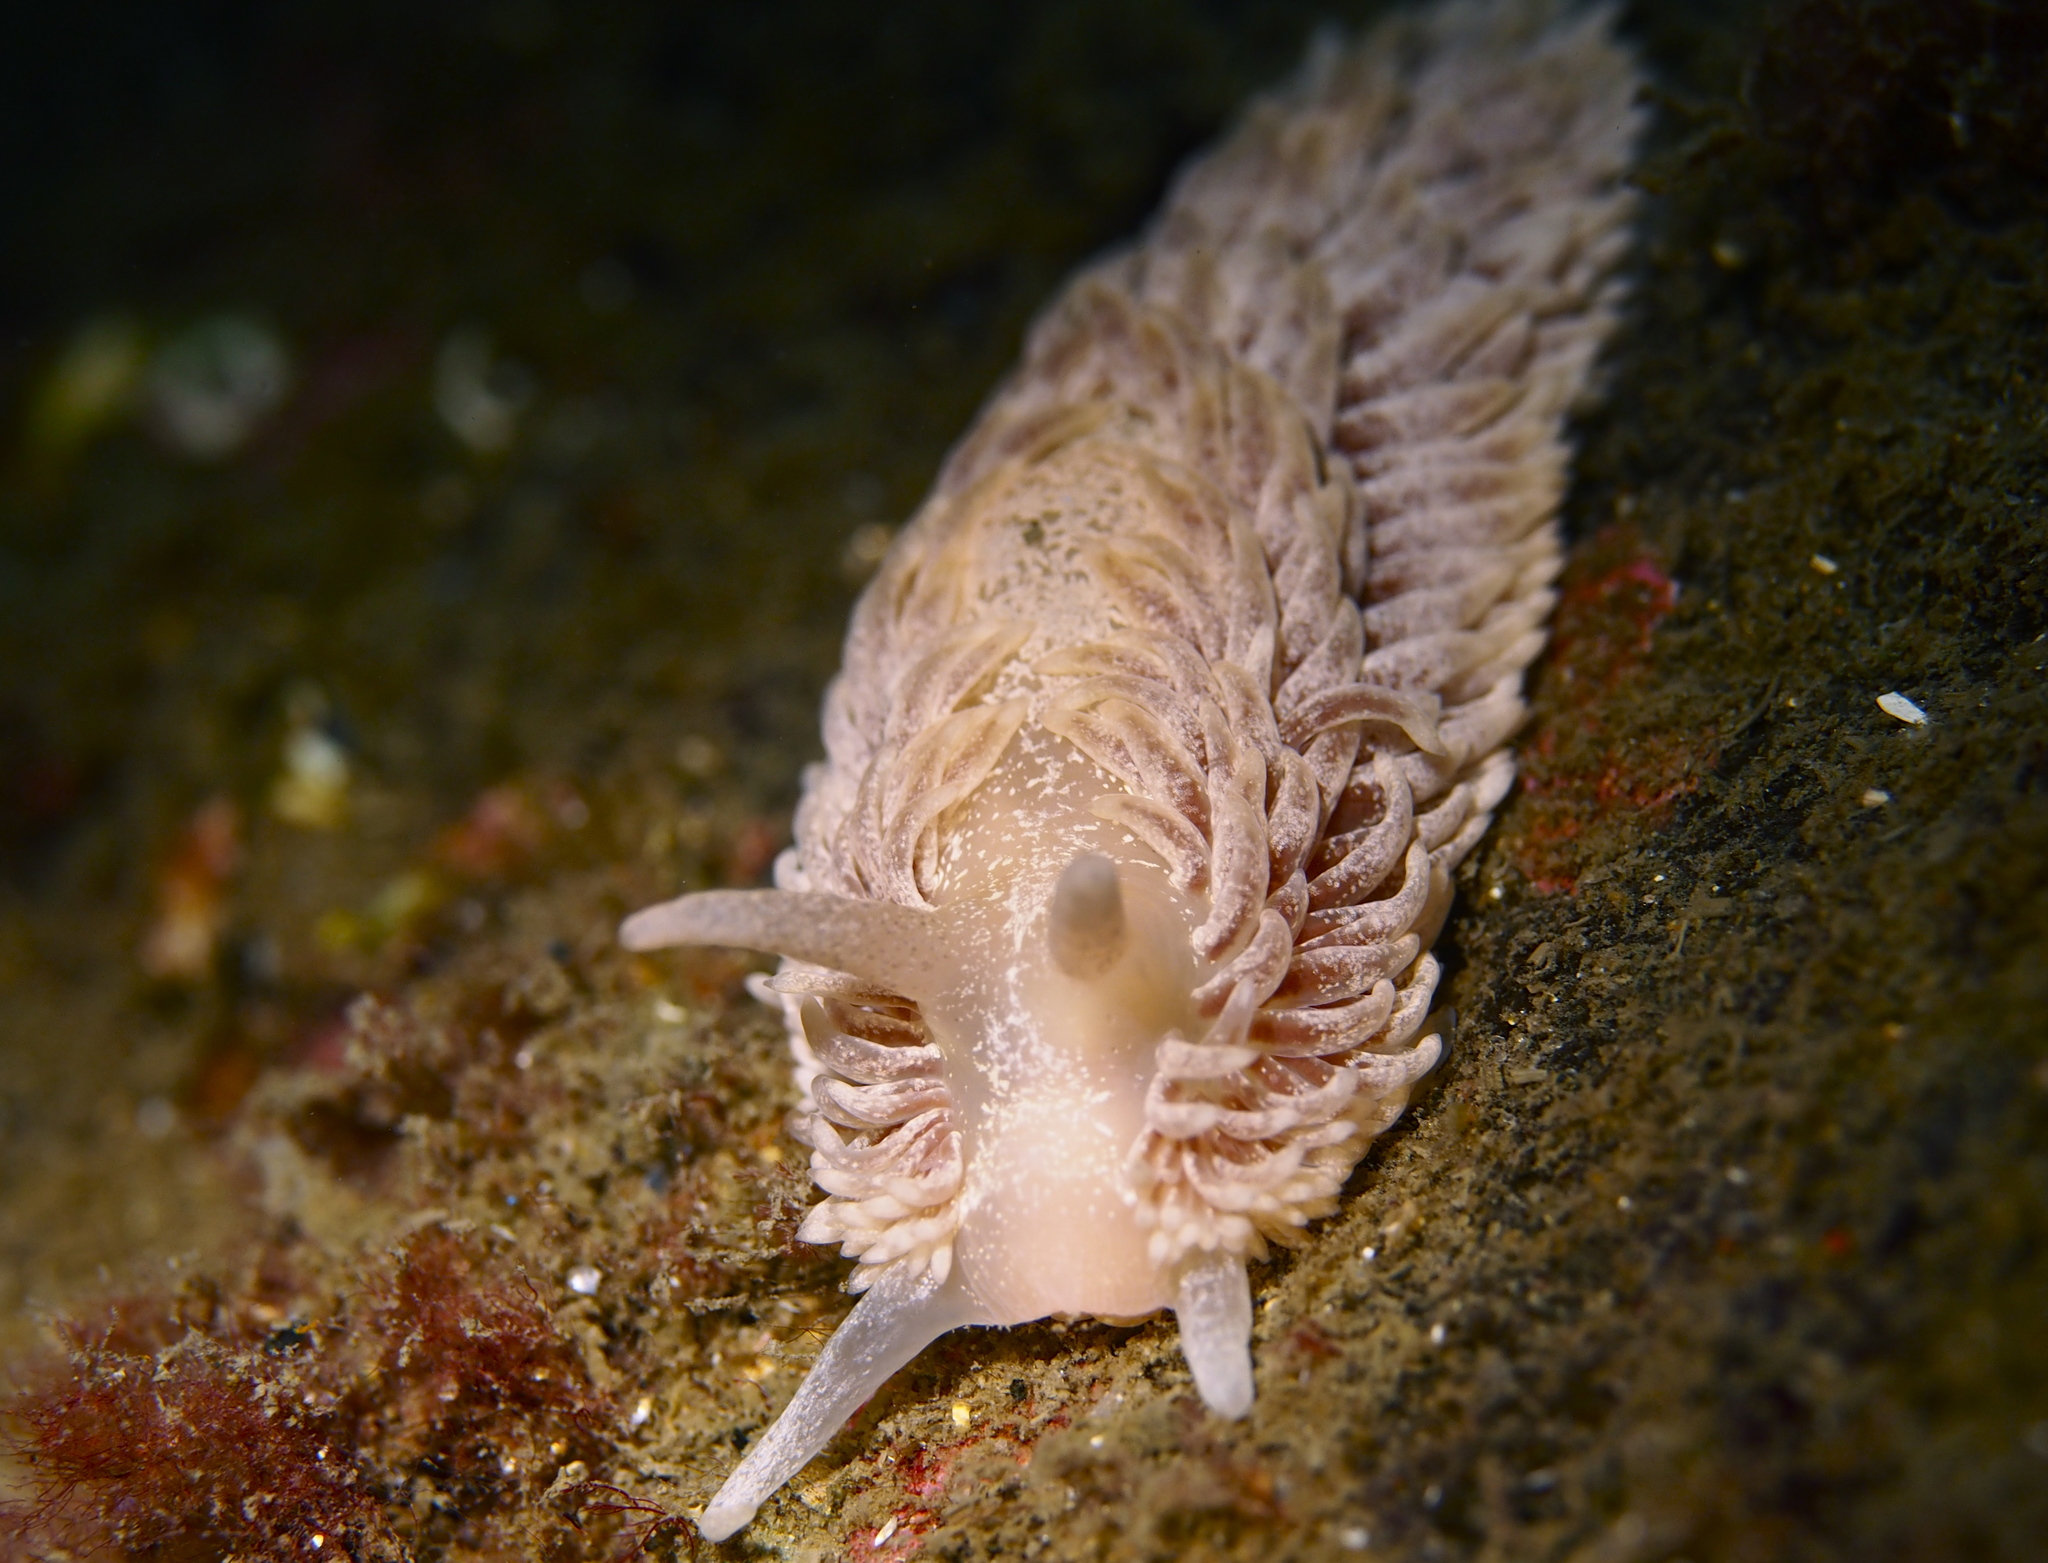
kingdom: Animalia
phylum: Mollusca
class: Gastropoda
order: Nudibranchia
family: Aeolidiidae
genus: Aeolidia
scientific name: Aeolidia papillosa
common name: Common grey sea slug
